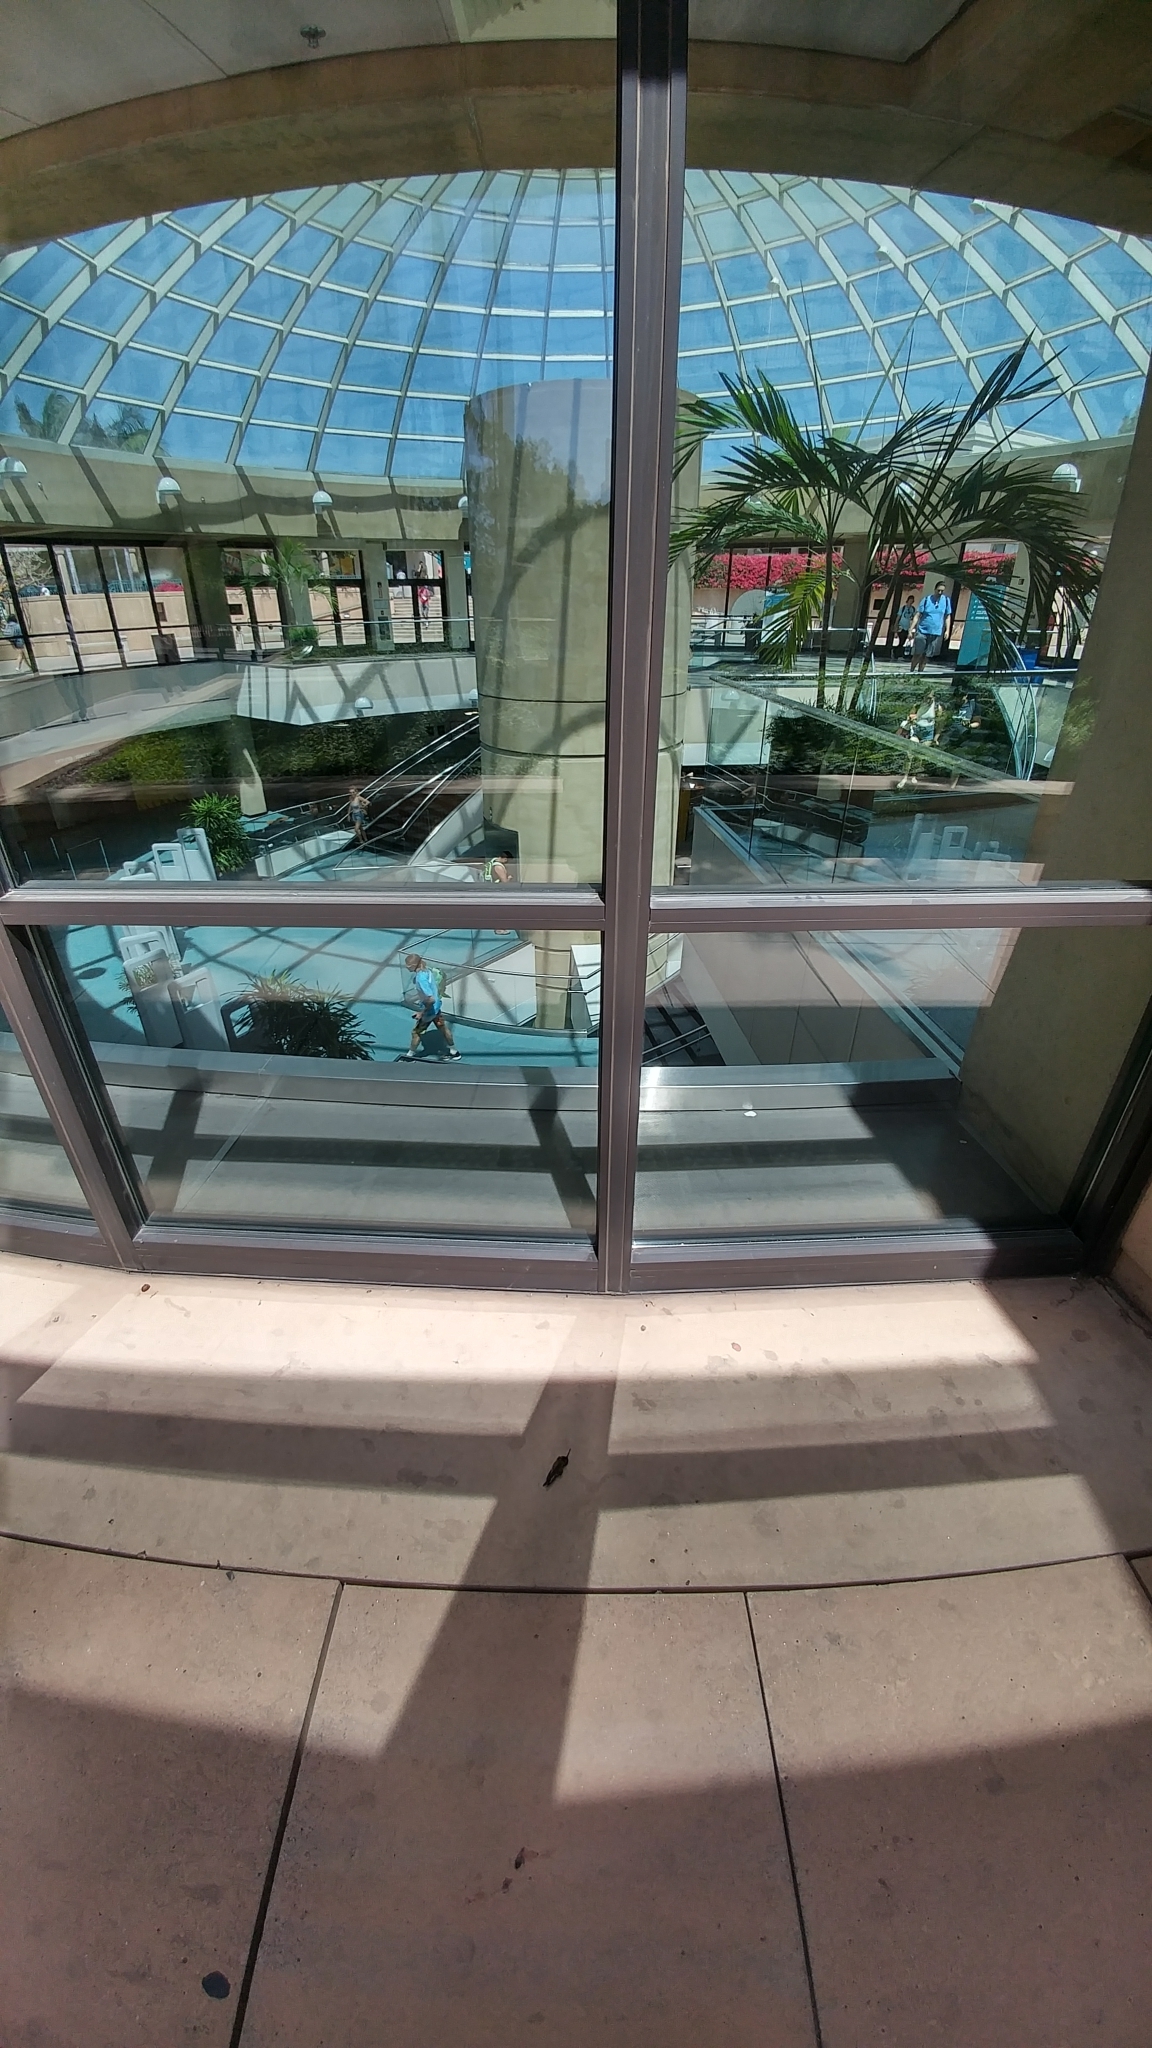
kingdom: Animalia
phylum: Chordata
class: Aves
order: Apodiformes
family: Trochilidae
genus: Calypte
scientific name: Calypte anna
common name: Anna's hummingbird
